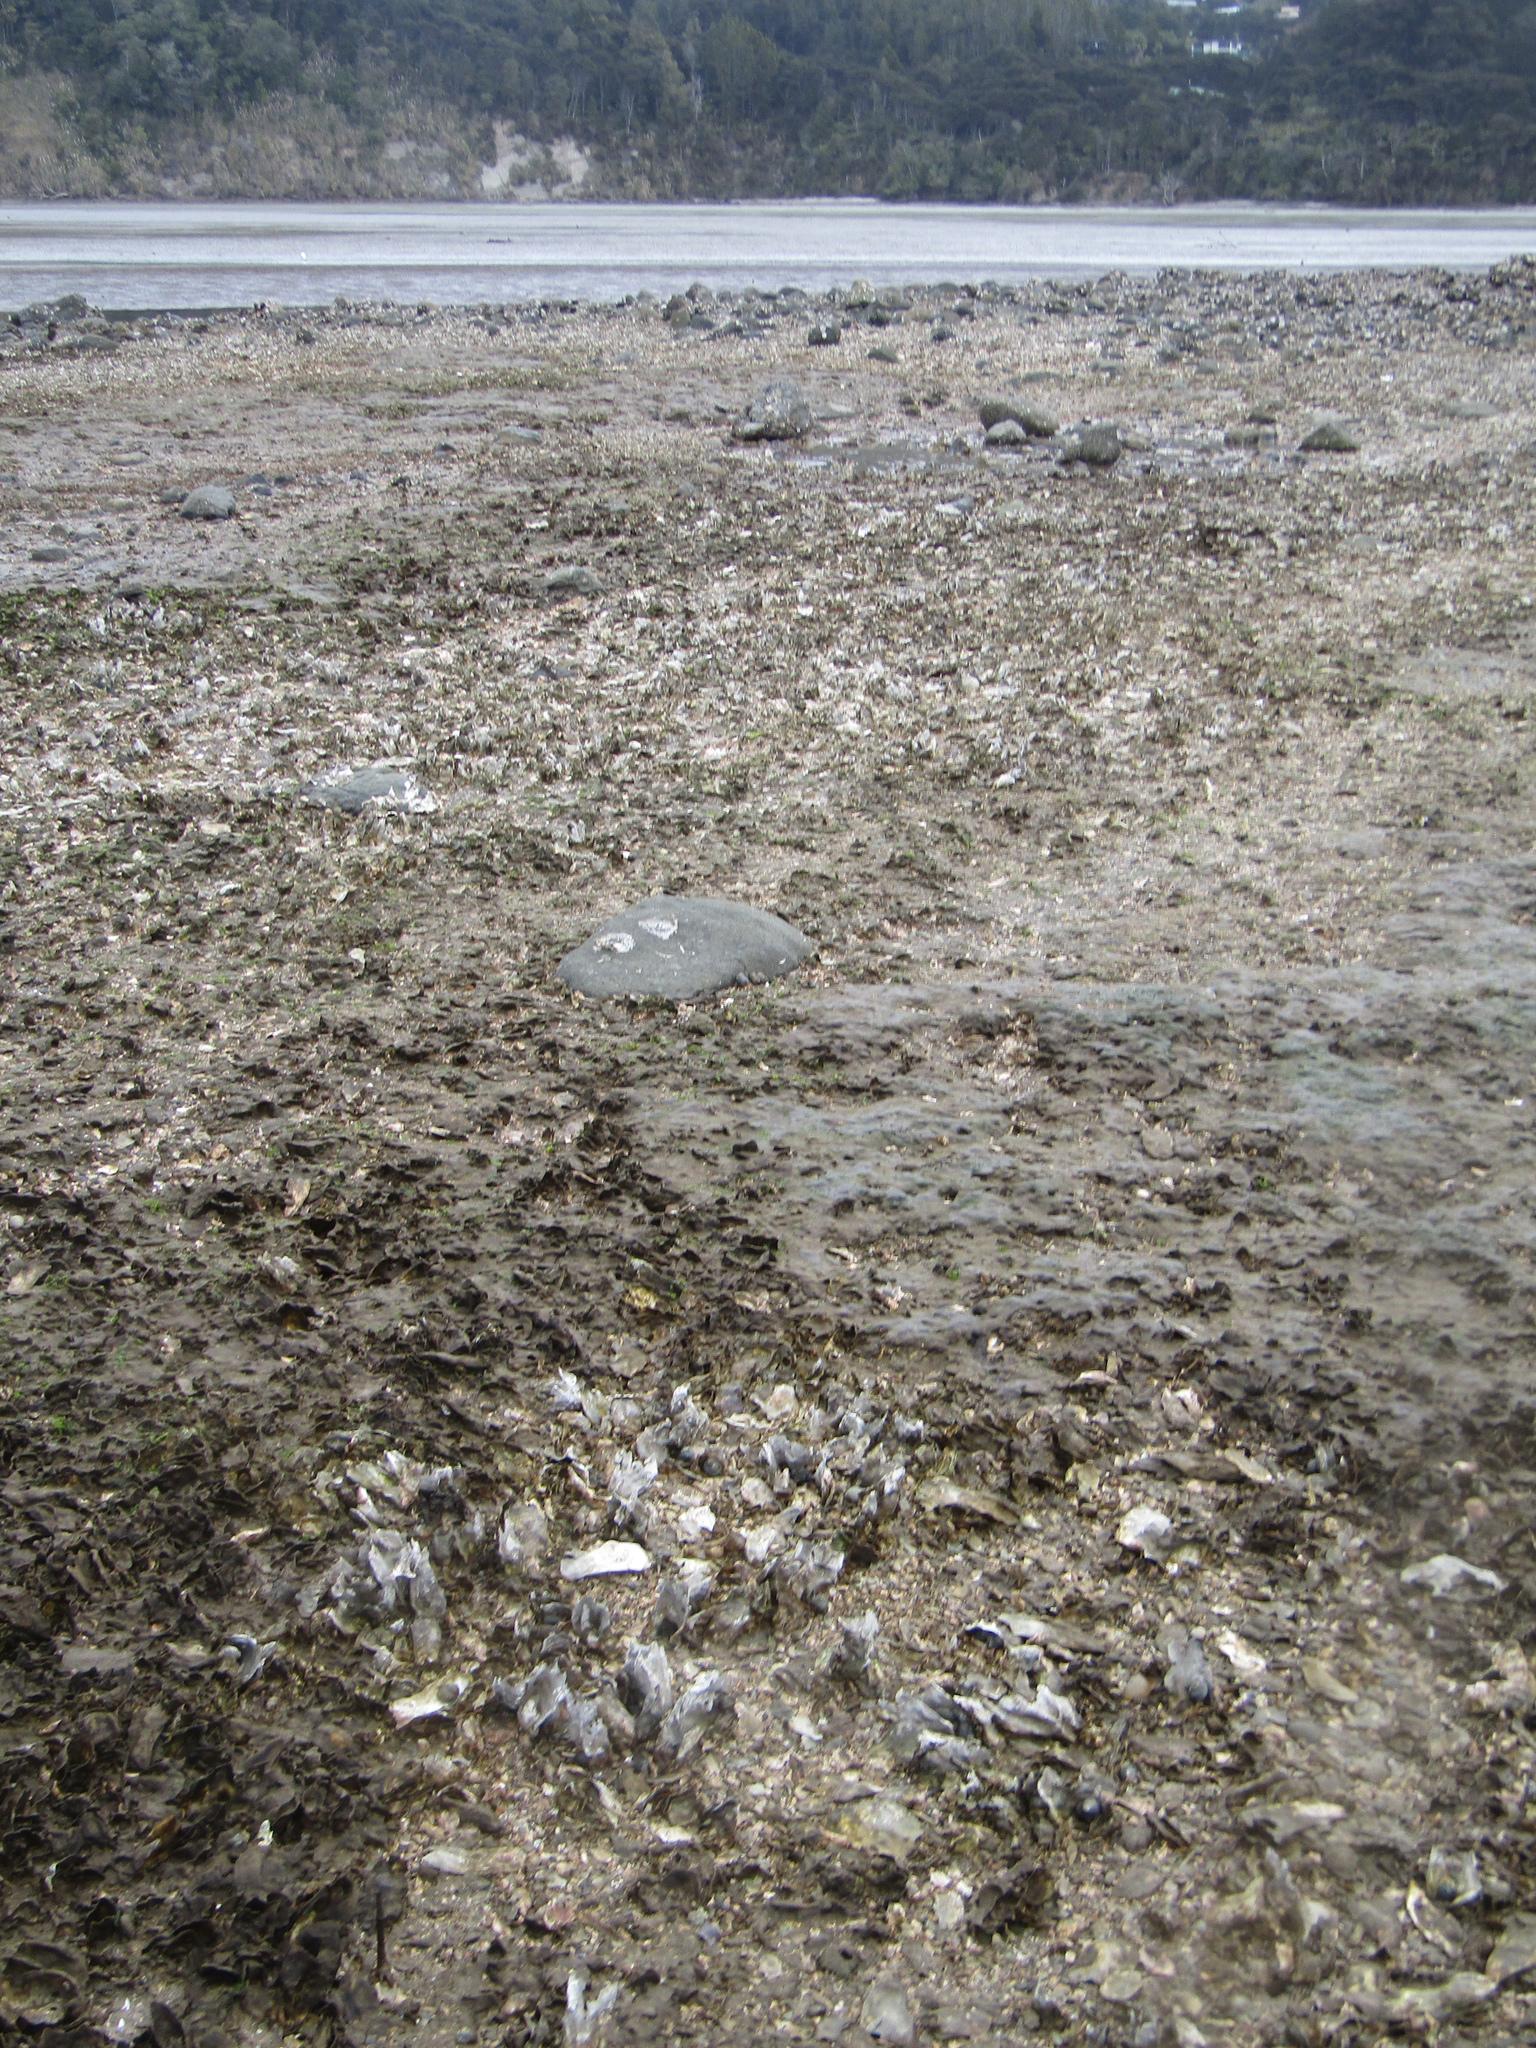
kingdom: Animalia
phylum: Mollusca
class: Bivalvia
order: Ostreida
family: Ostreidae
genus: Magallana
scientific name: Magallana gigas
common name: Pacific oyster
